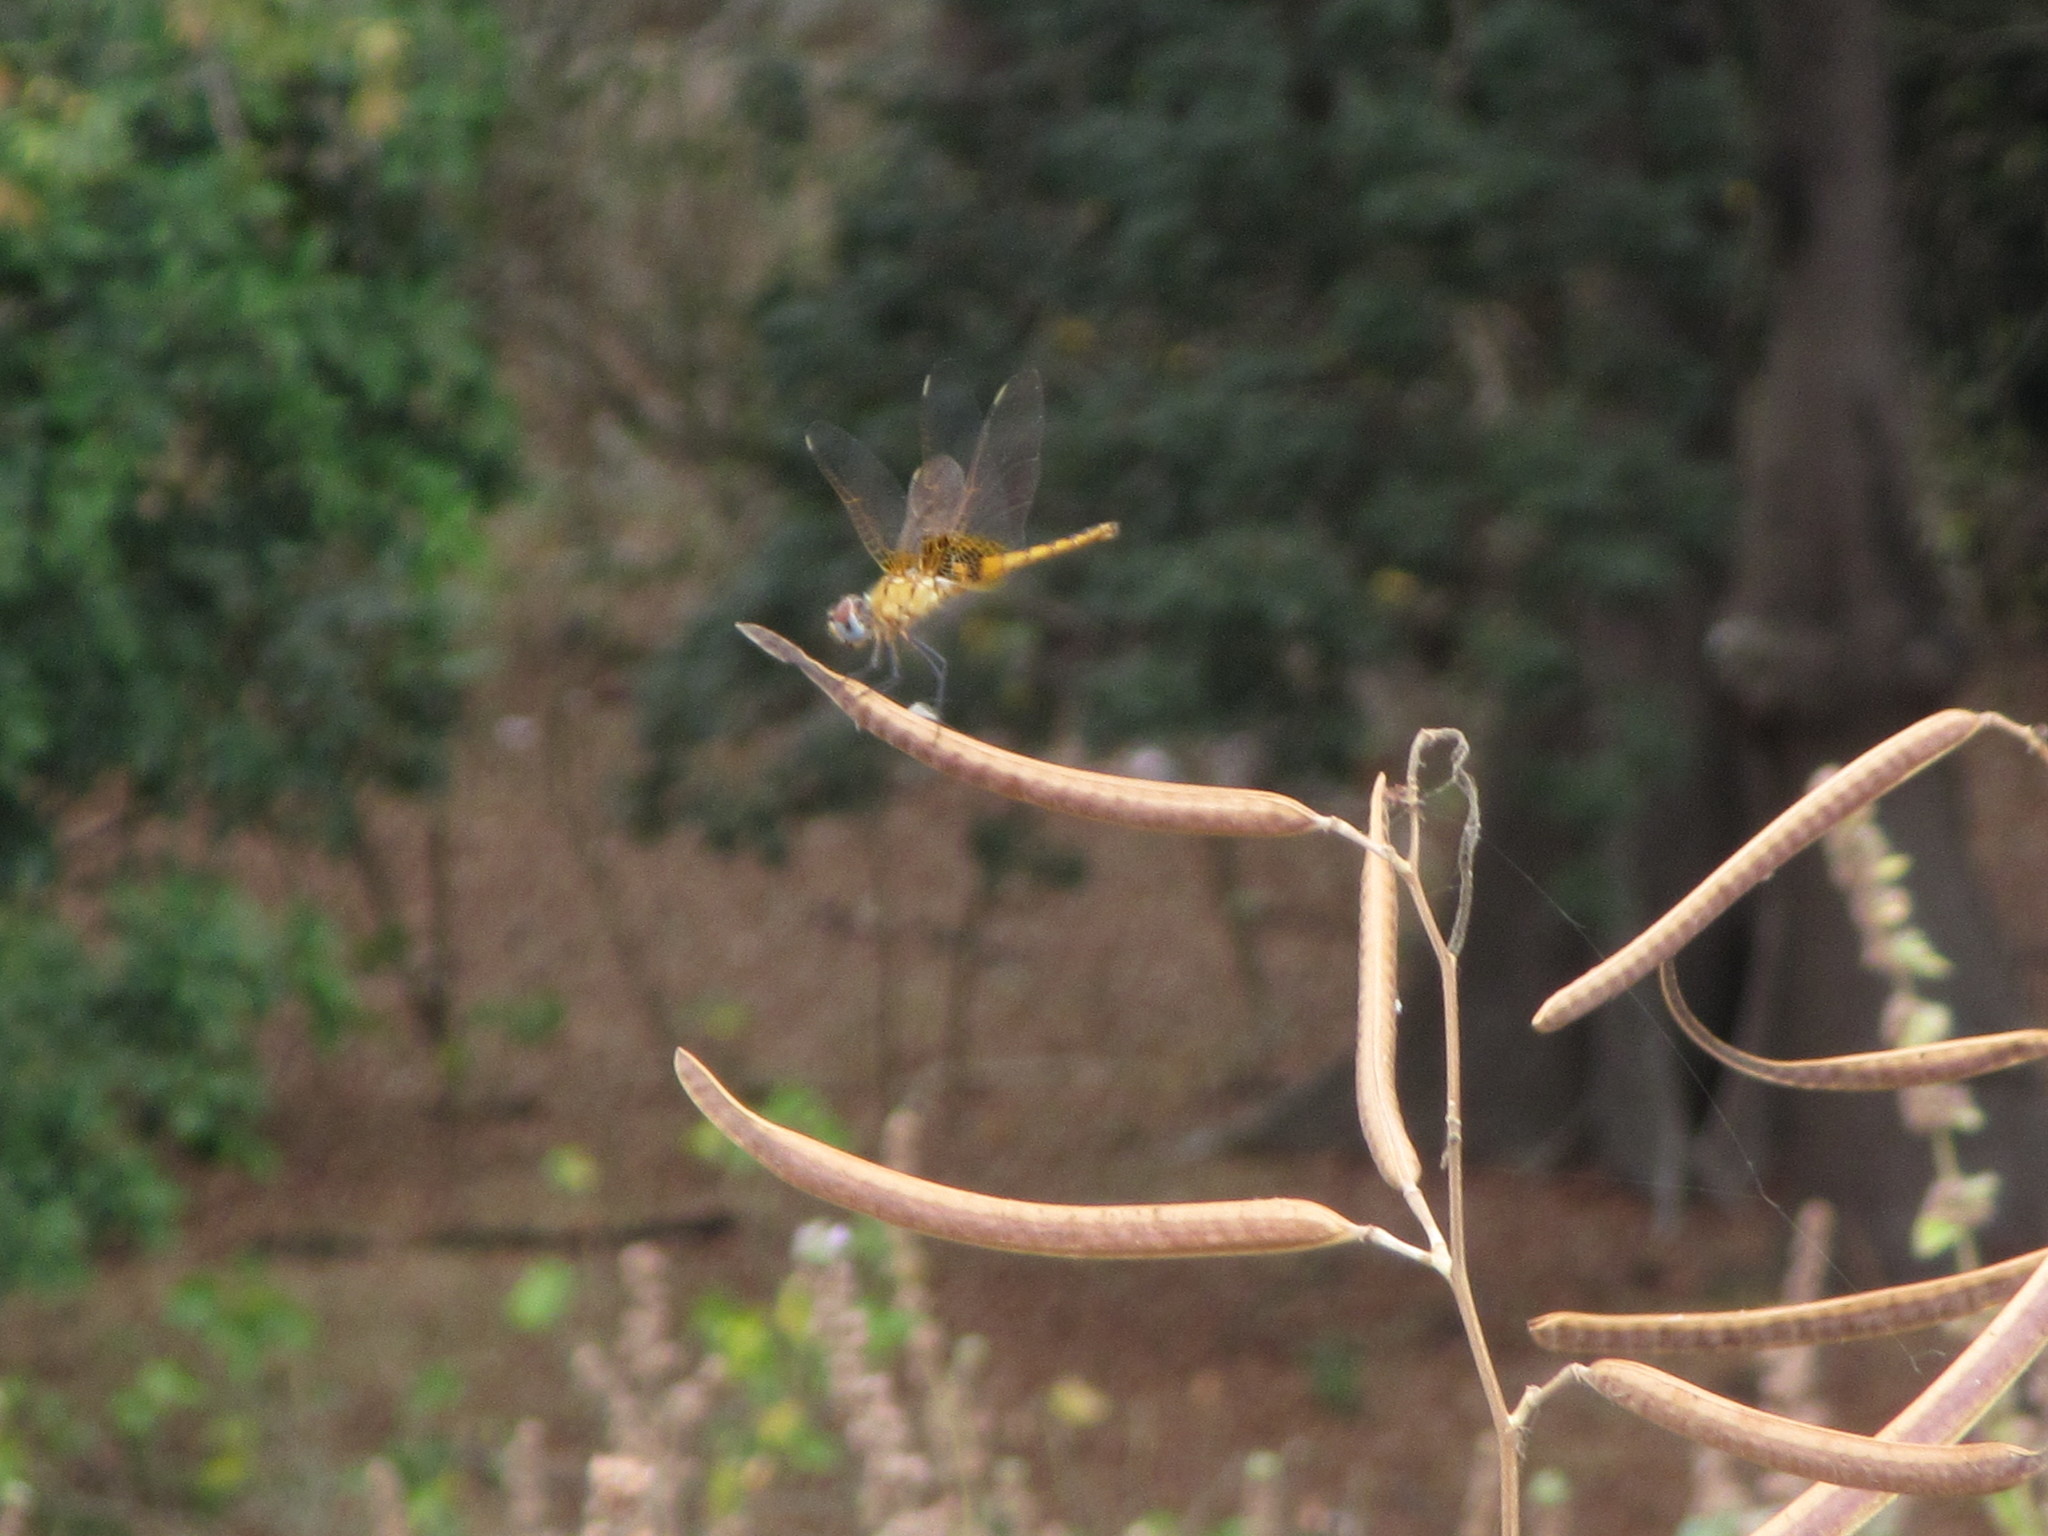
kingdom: Animalia
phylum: Arthropoda
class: Insecta
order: Odonata
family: Libellulidae
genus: Urothemis
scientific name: Urothemis edwardsii
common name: Blue basker
